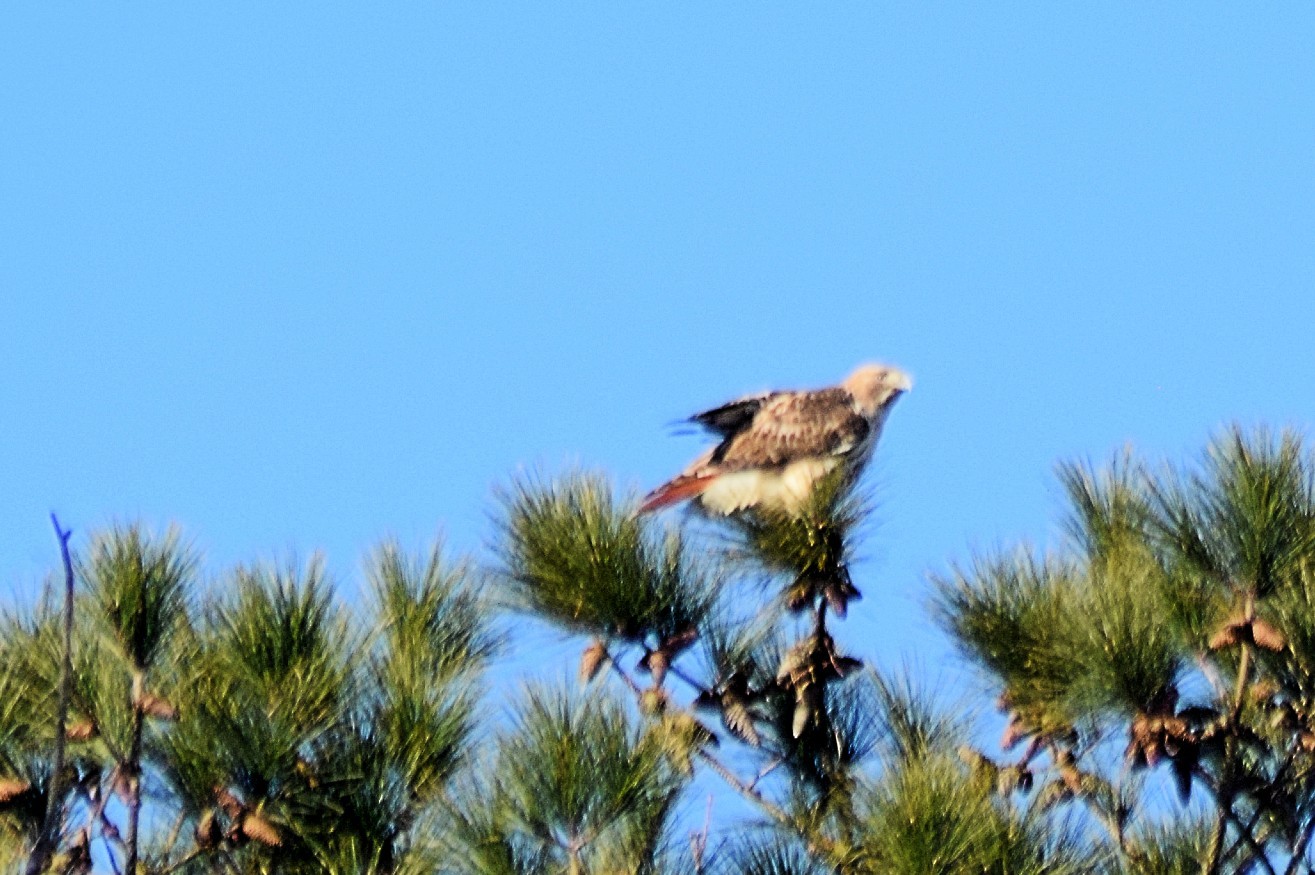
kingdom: Animalia
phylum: Chordata
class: Aves
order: Accipitriformes
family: Accipitridae
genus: Buteo
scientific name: Buteo jamaicensis
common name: Red-tailed hawk
